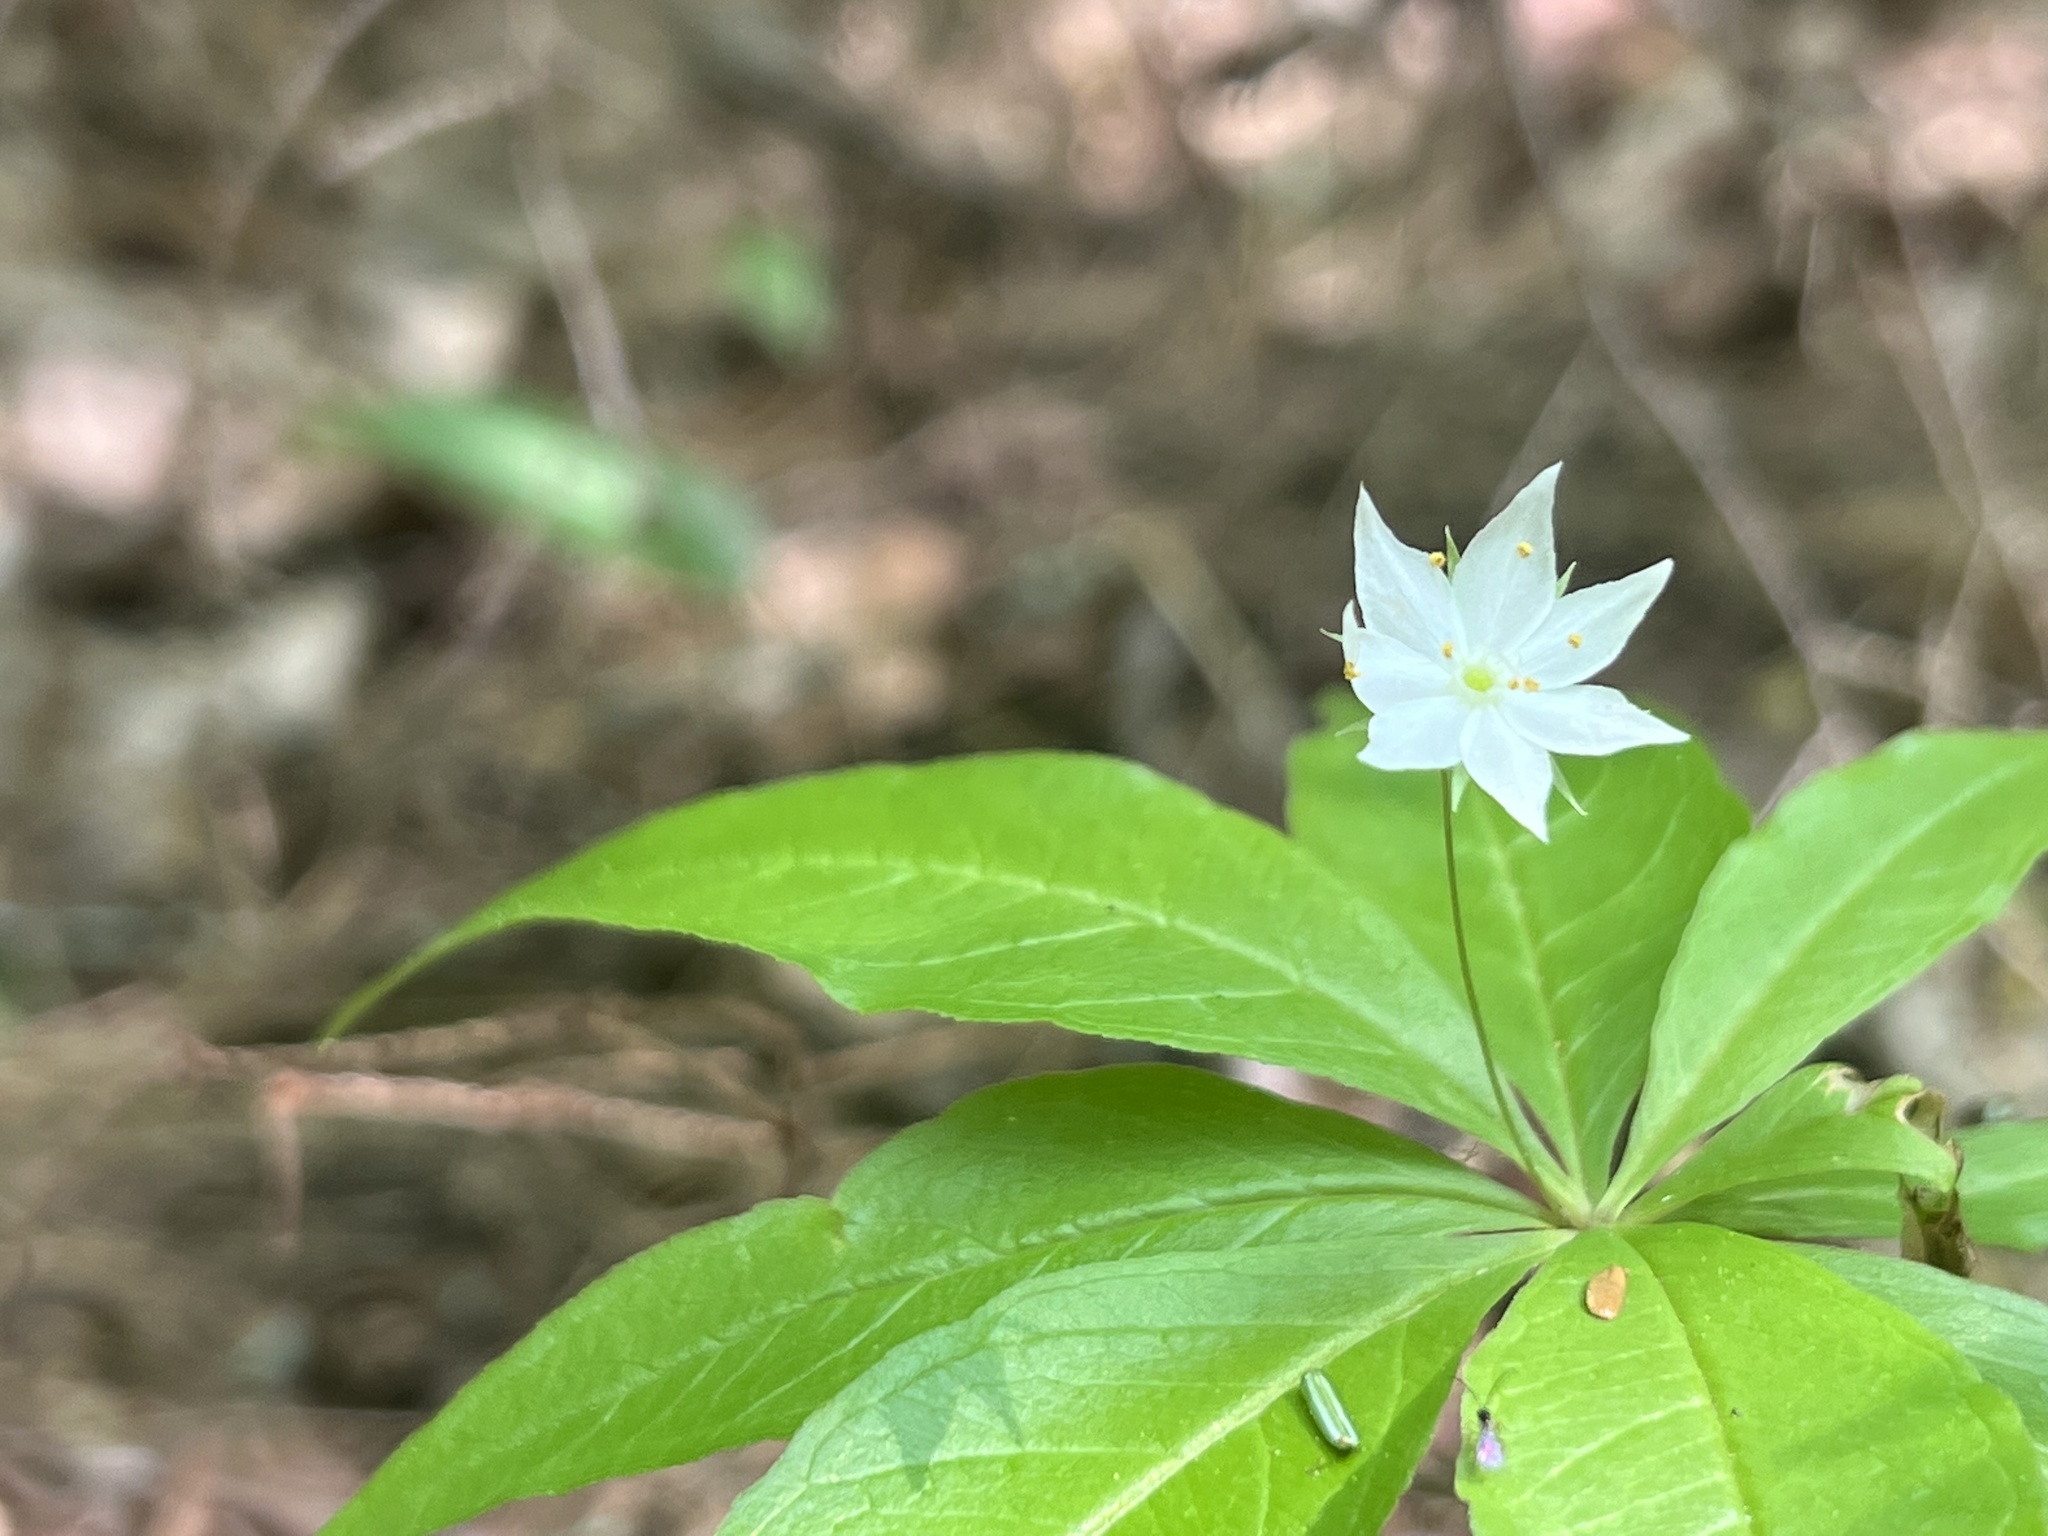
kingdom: Plantae
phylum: Tracheophyta
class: Magnoliopsida
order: Ericales
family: Primulaceae
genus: Lysimachia
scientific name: Lysimachia borealis
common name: American starflower
